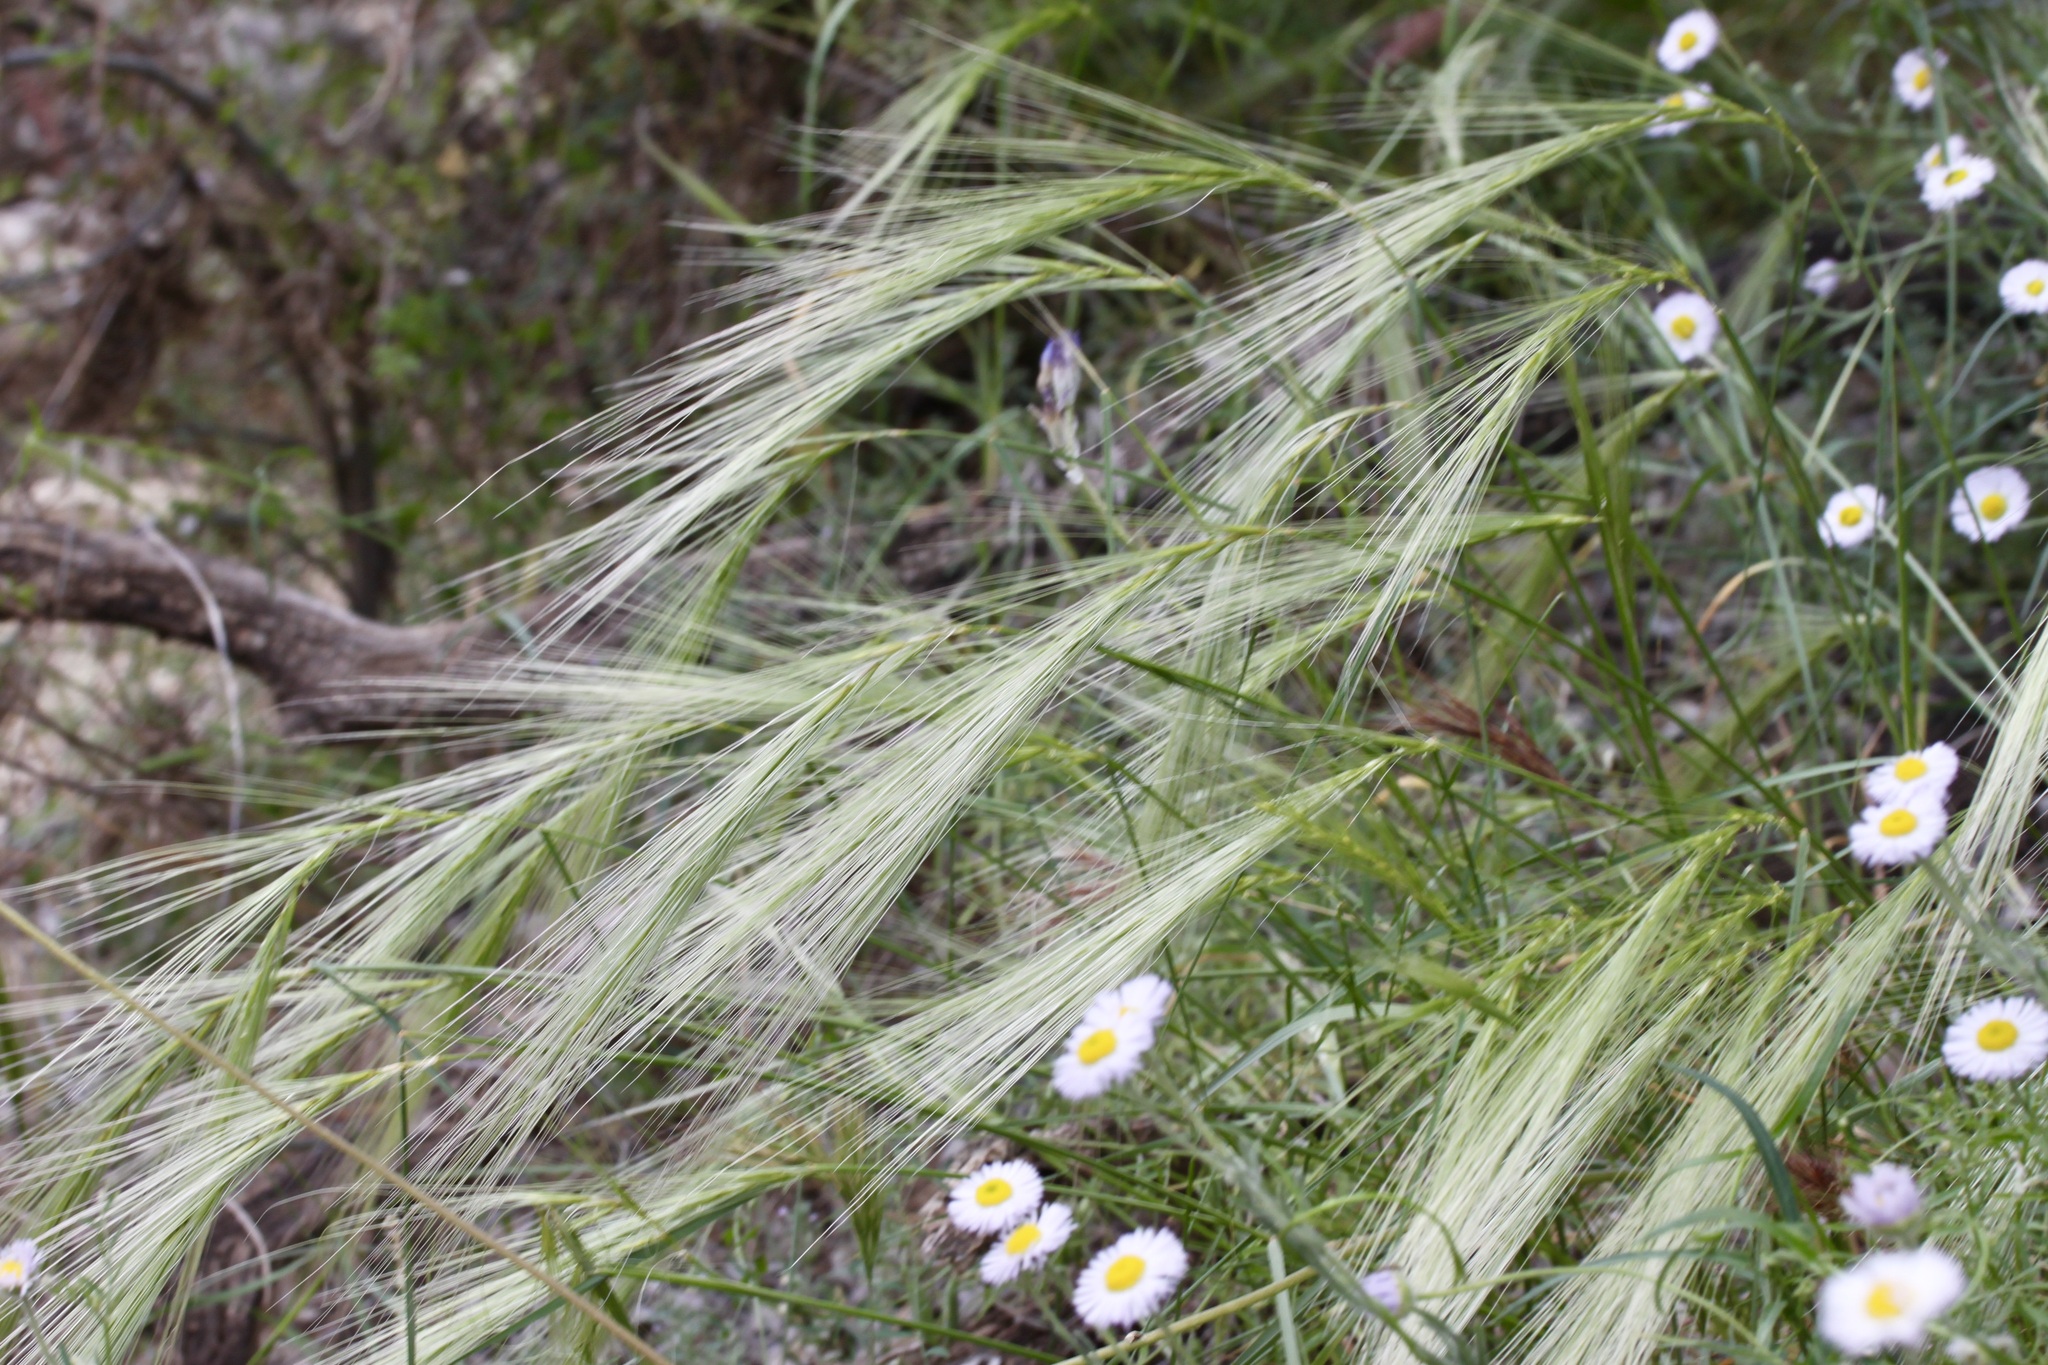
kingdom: Plantae
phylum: Tracheophyta
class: Liliopsida
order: Poales
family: Poaceae
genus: Hordeum
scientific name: Hordeum jubatum
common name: Foxtail barley
